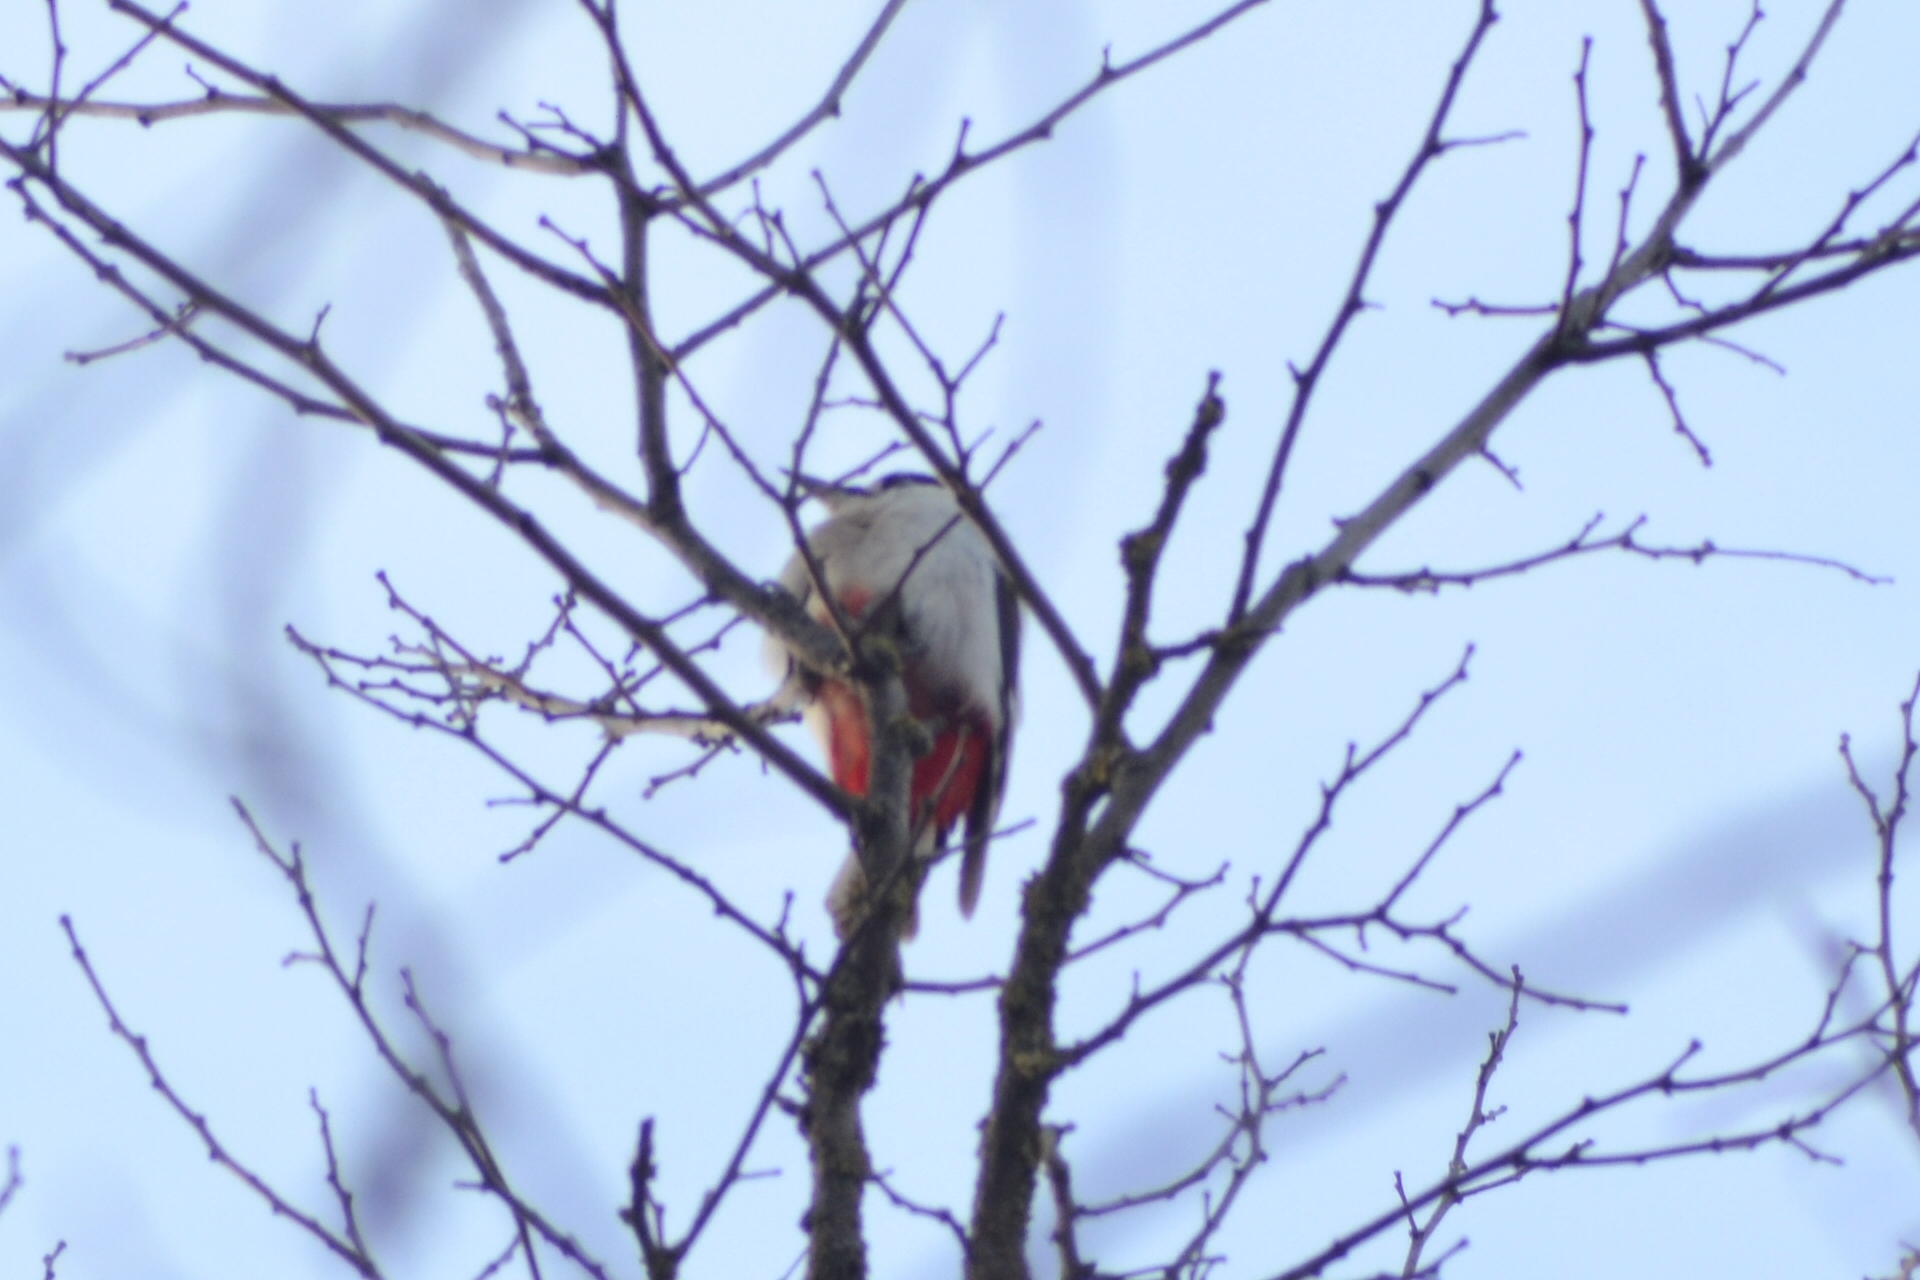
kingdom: Animalia
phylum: Chordata
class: Aves
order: Piciformes
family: Picidae
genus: Dendrocopos
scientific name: Dendrocopos major
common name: Great spotted woodpecker
